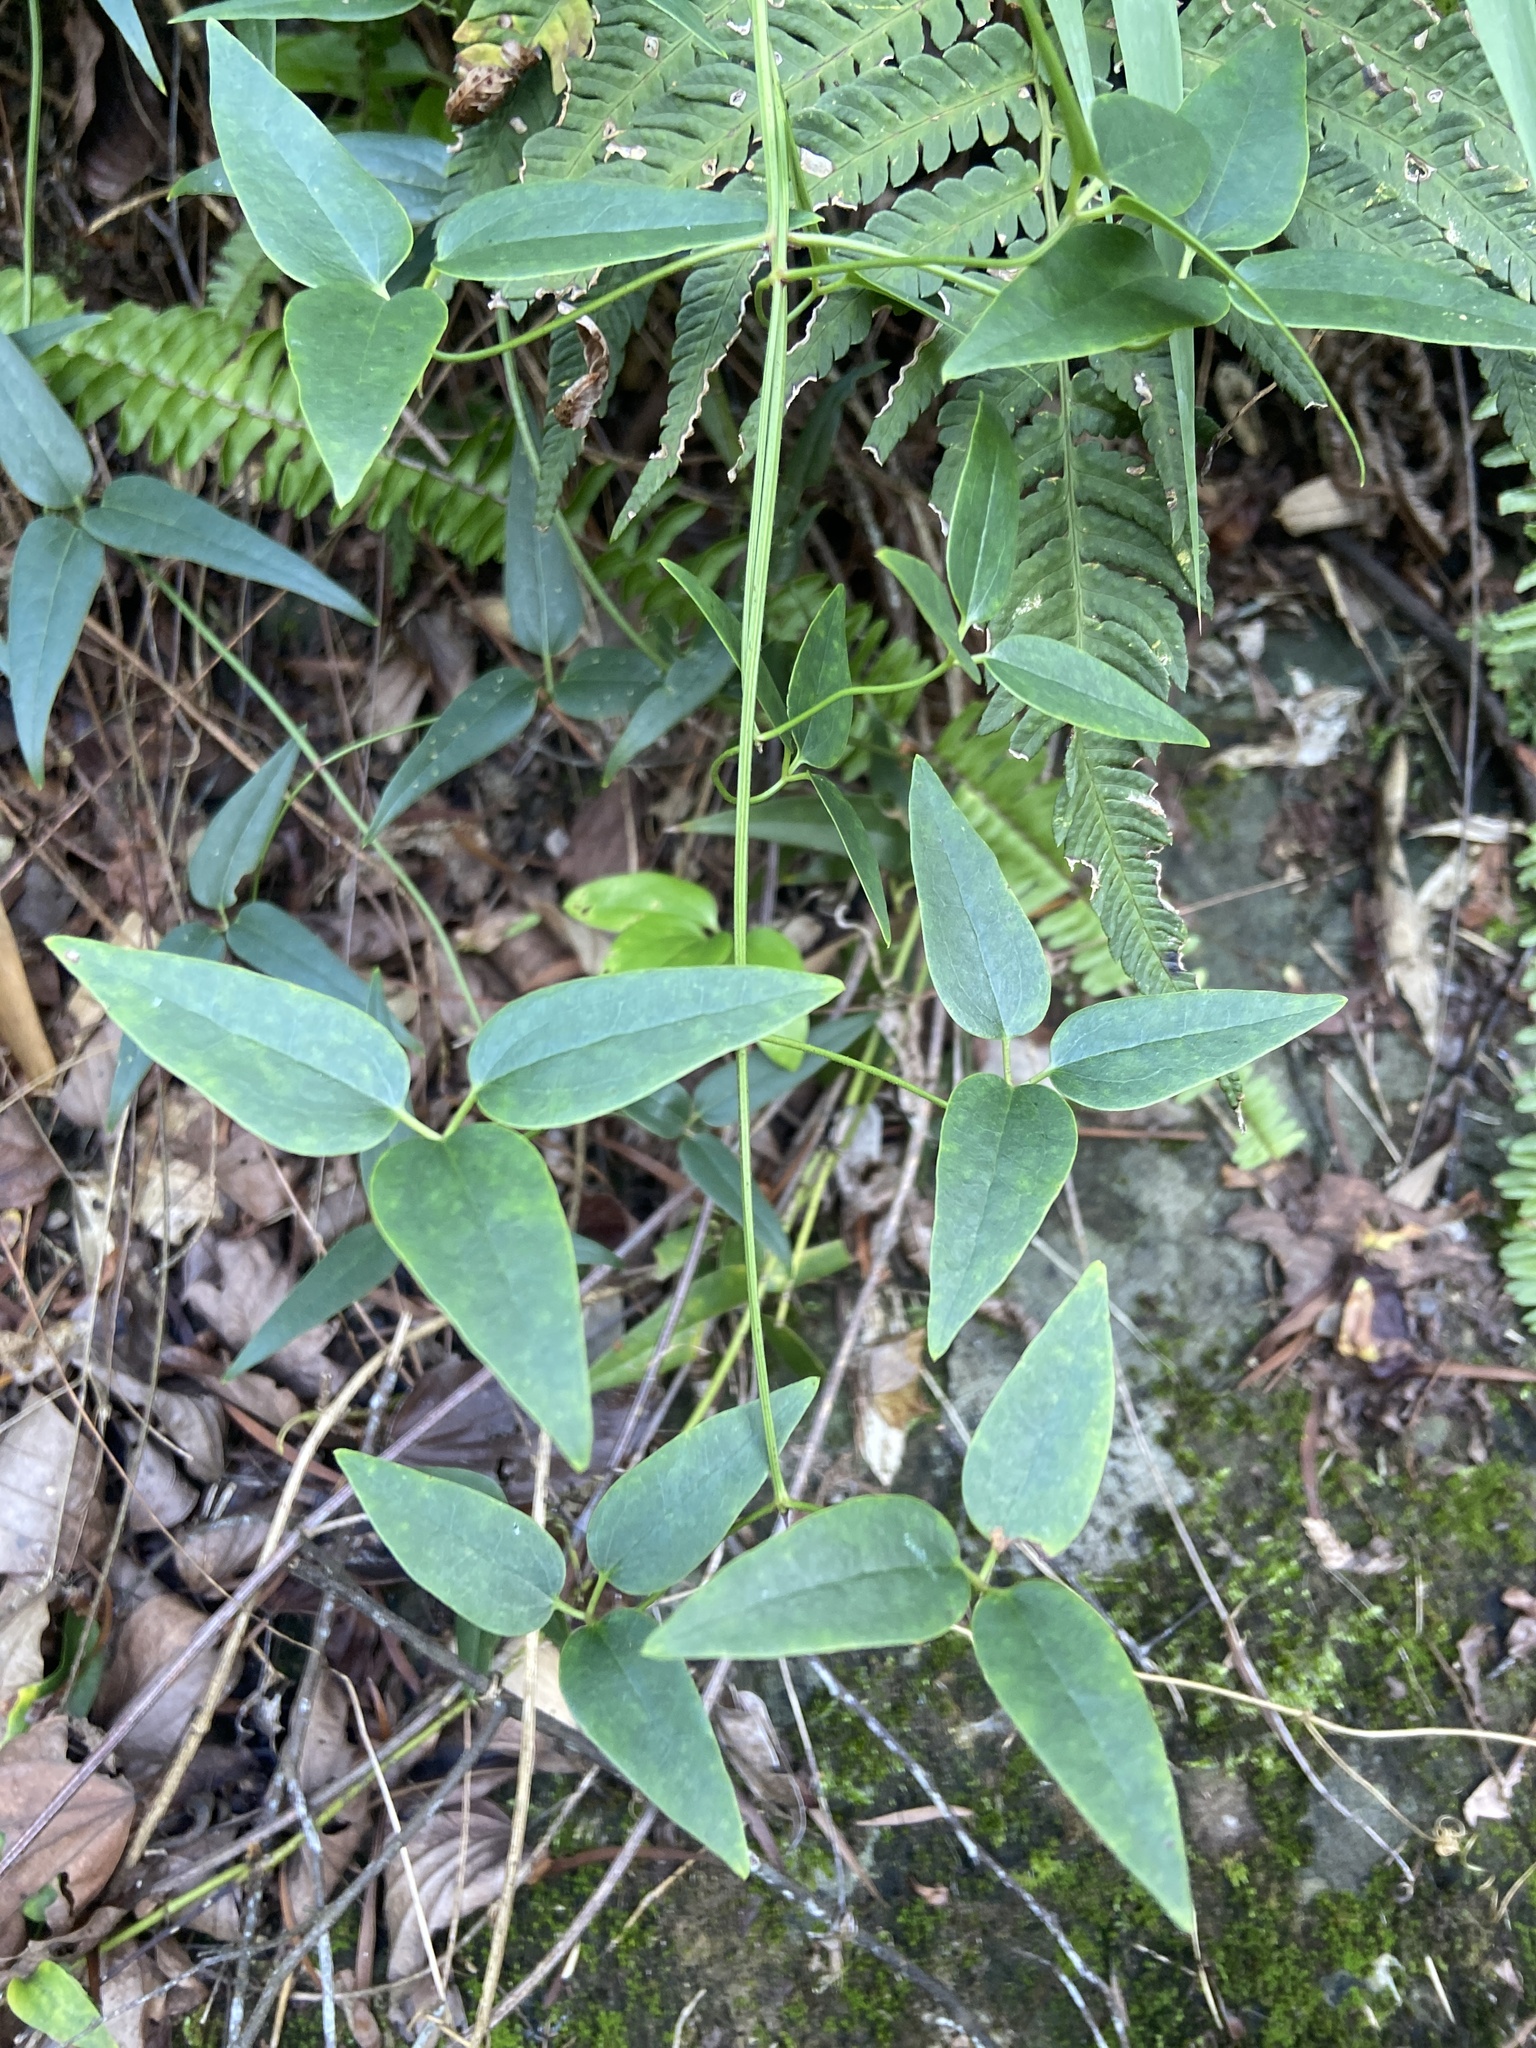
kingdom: Plantae
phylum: Tracheophyta
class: Magnoliopsida
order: Ranunculales
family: Ranunculaceae
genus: Clematis
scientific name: Clematis meyeniana
